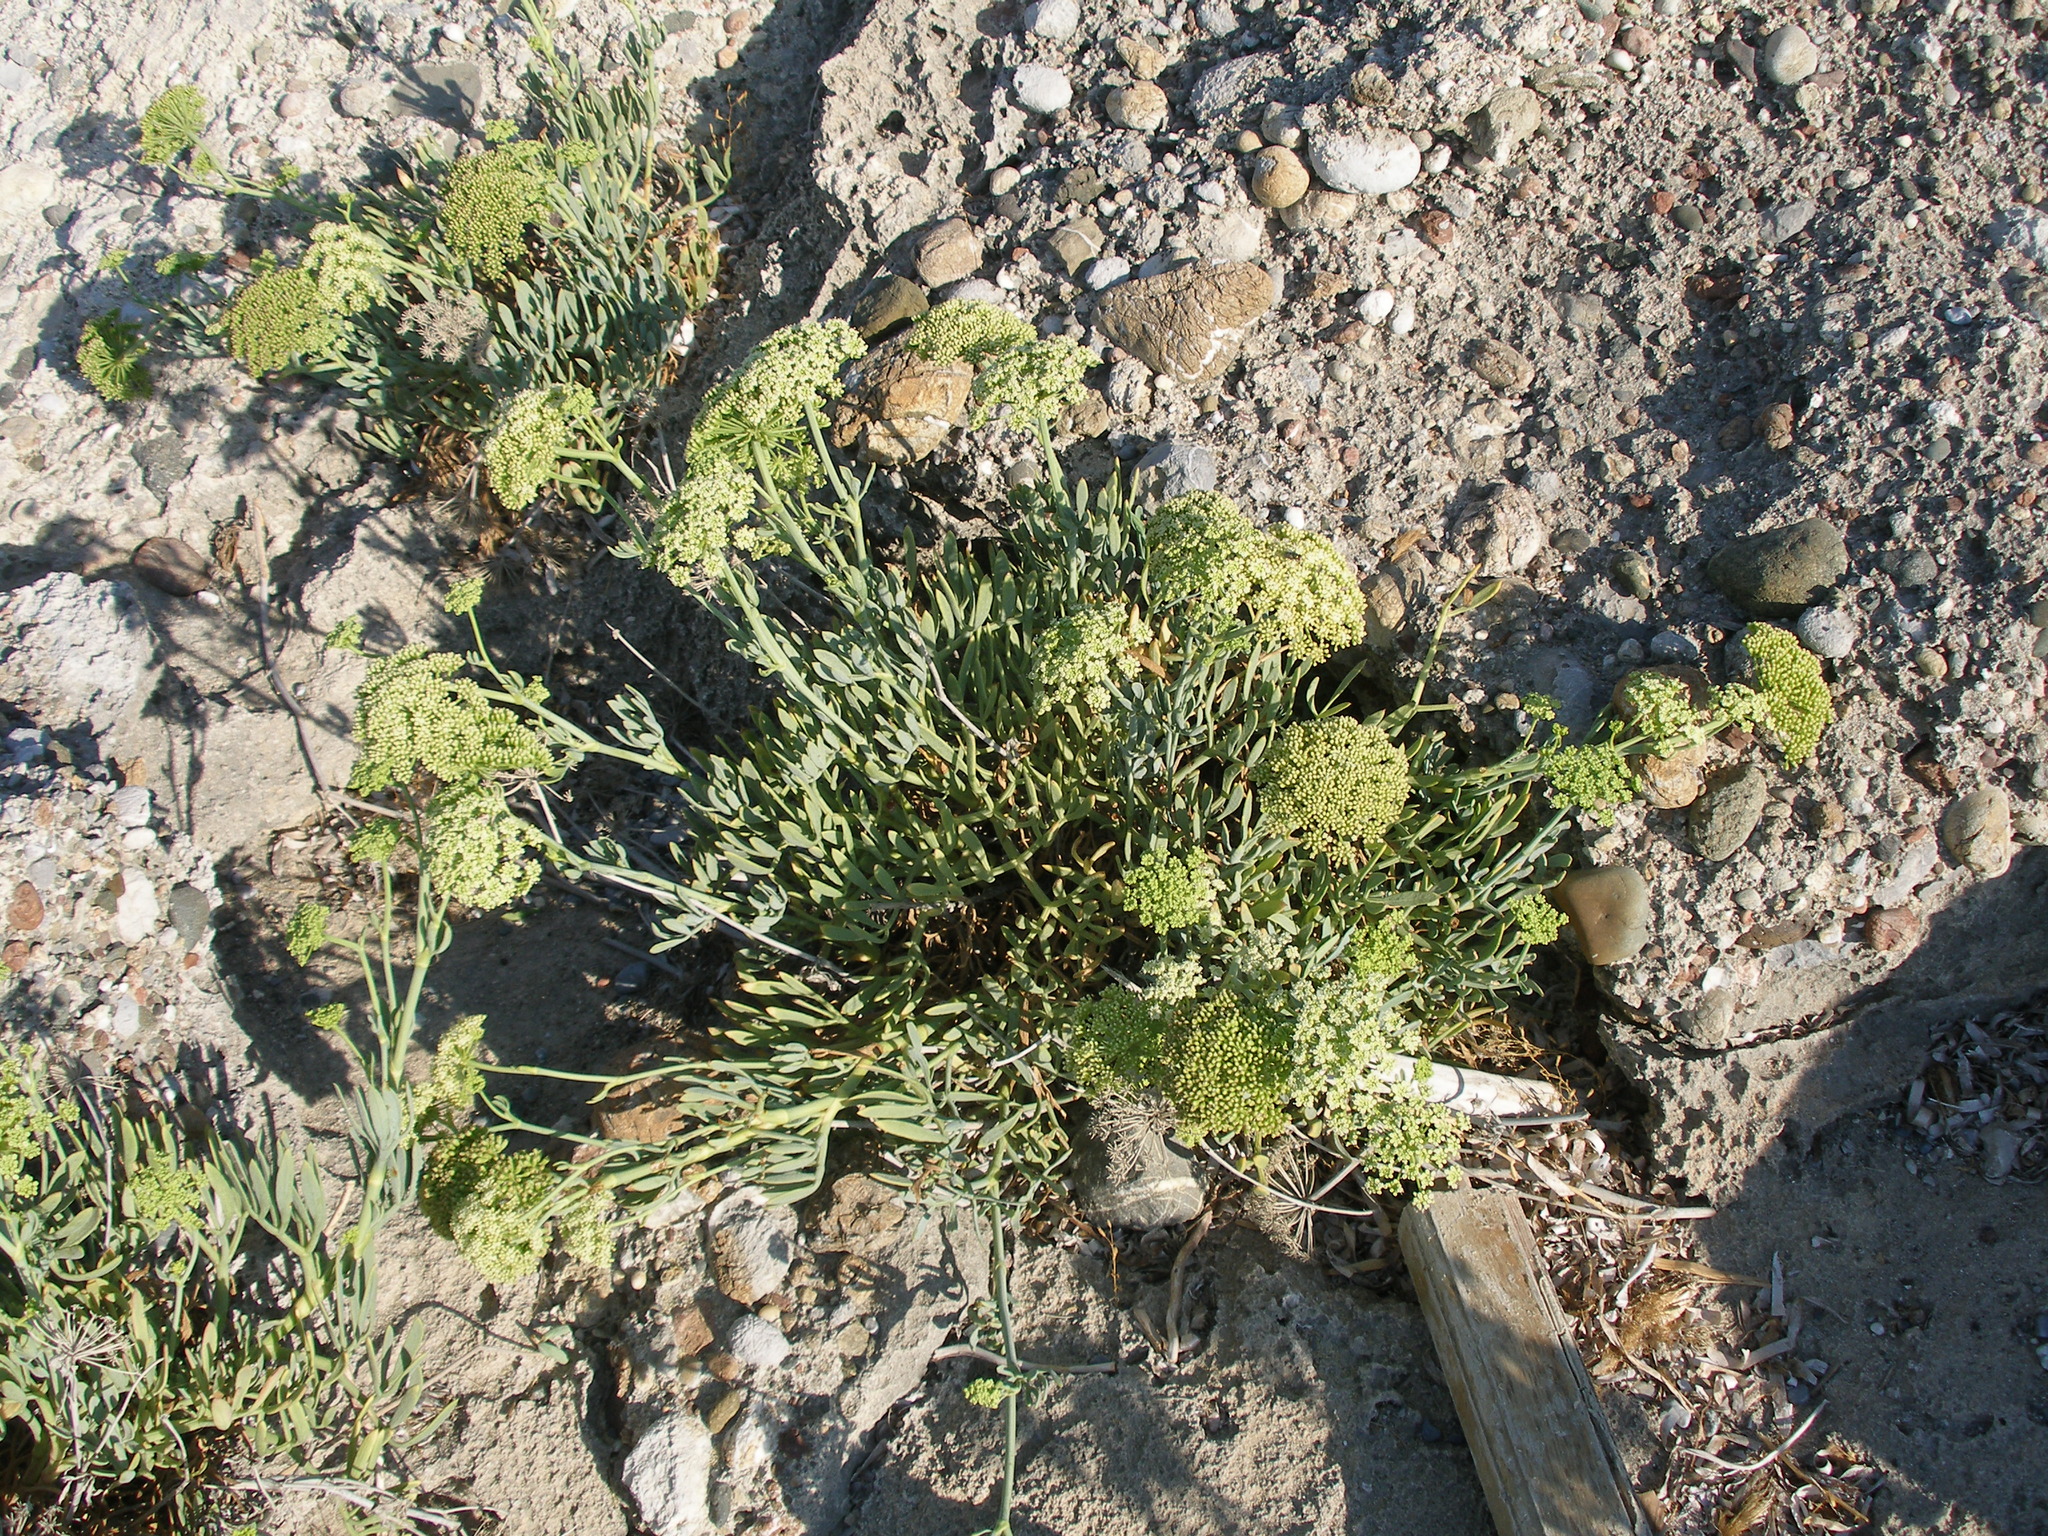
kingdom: Plantae
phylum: Tracheophyta
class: Magnoliopsida
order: Apiales
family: Apiaceae
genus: Crithmum
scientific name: Crithmum maritimum
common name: Rock samphire
